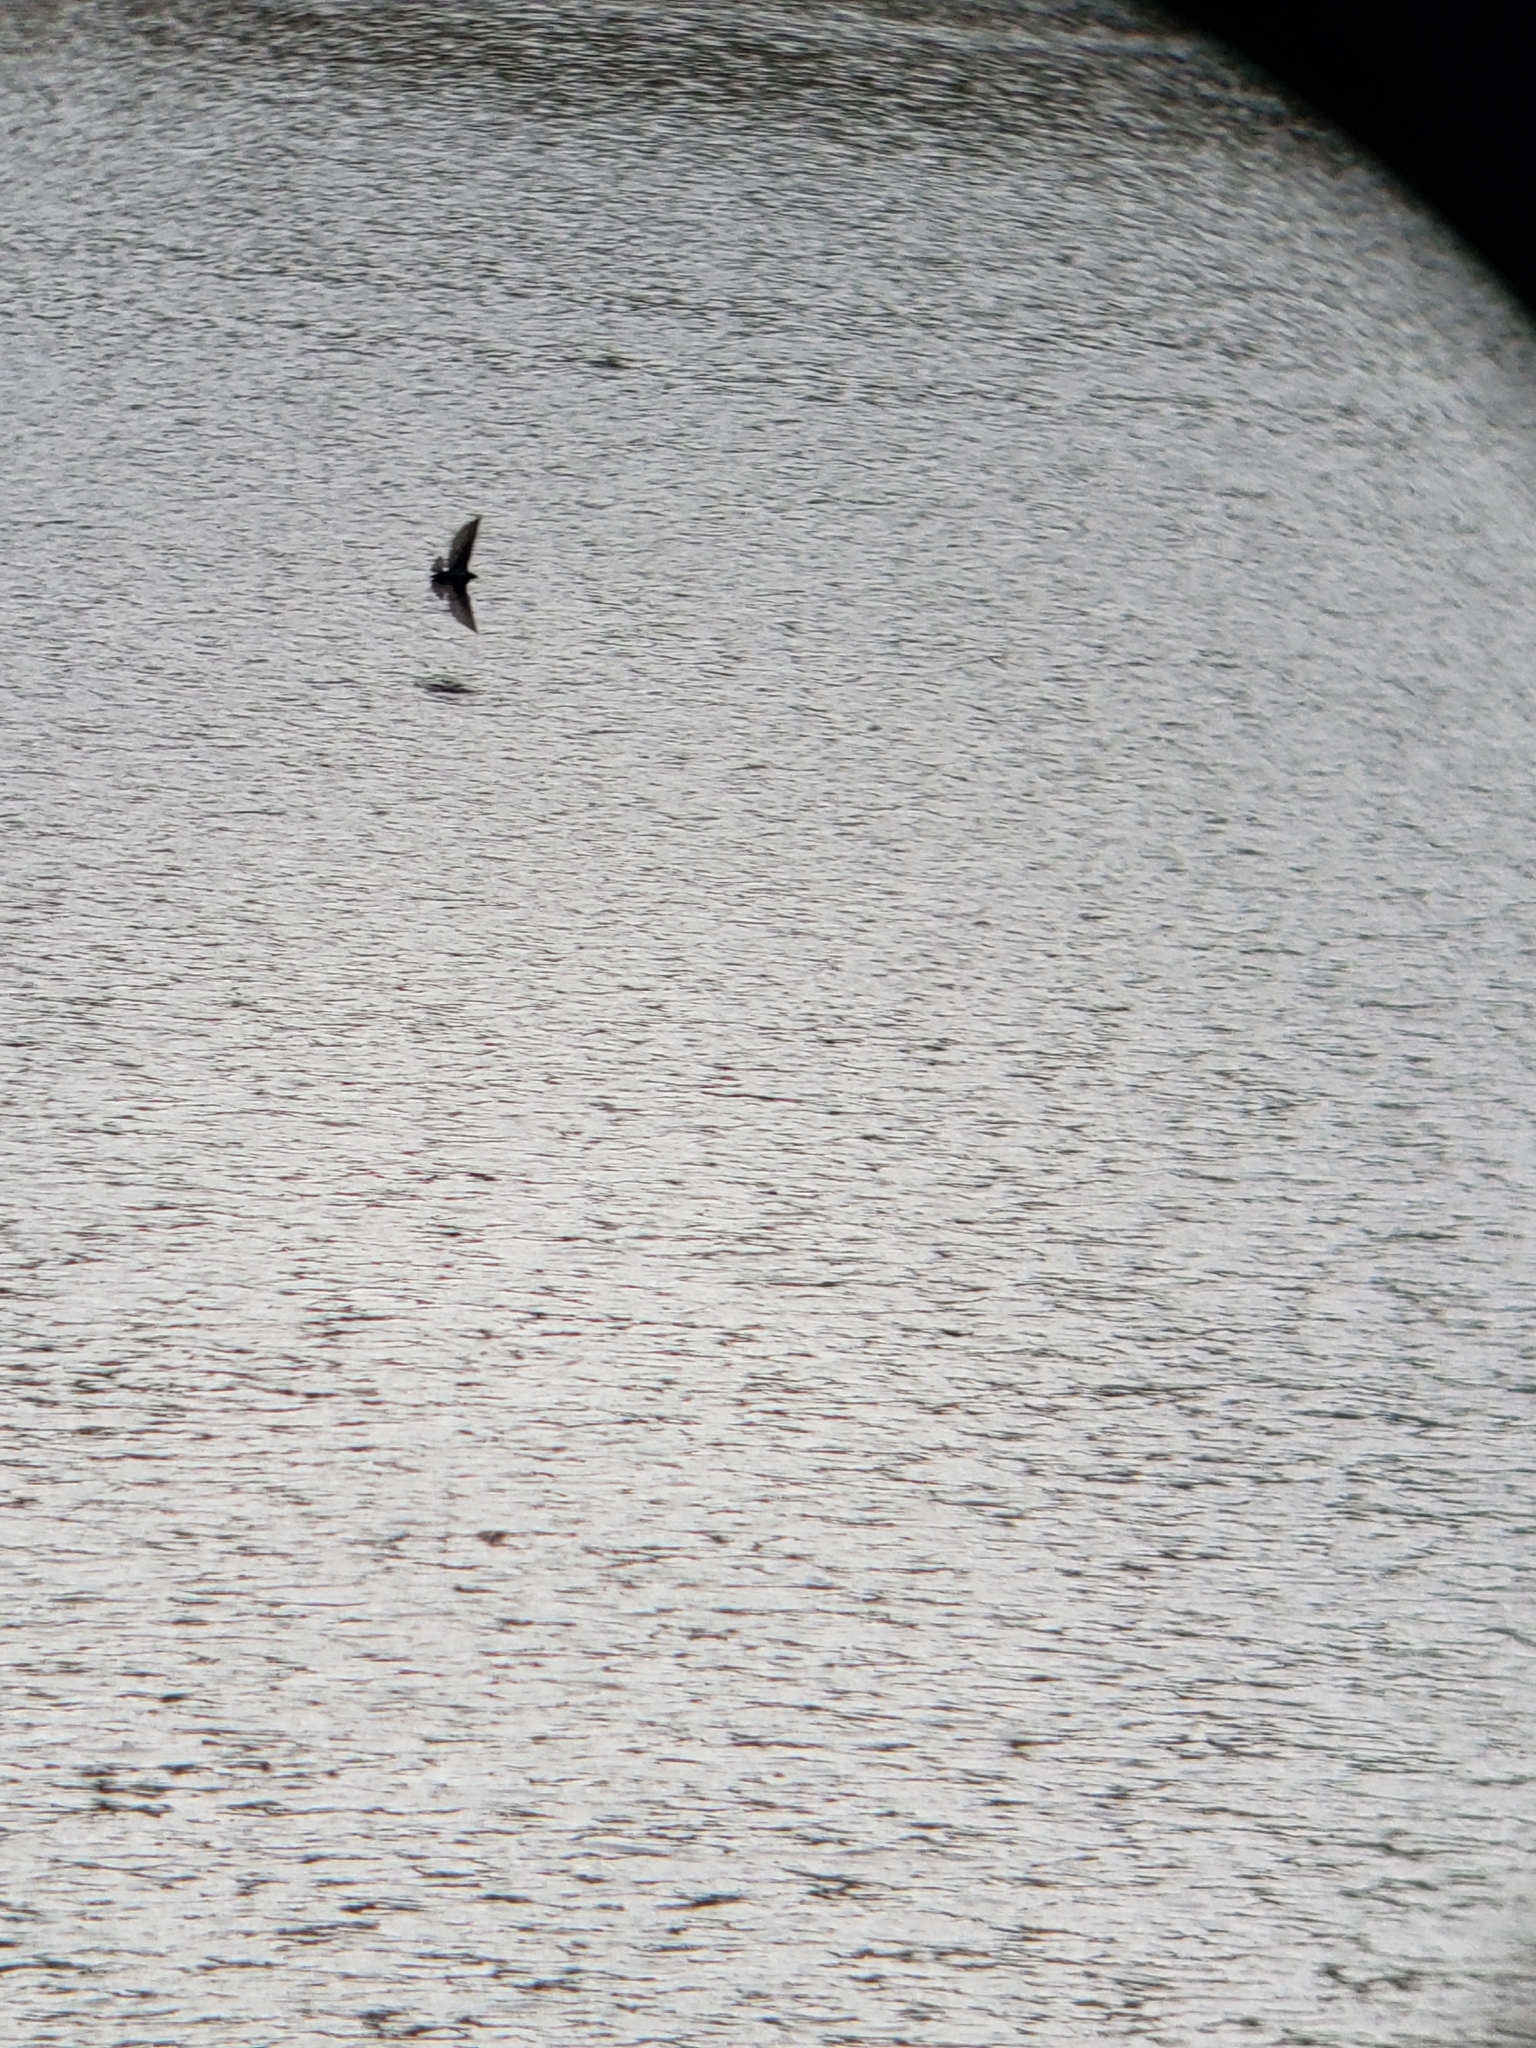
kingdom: Animalia
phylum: Chordata
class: Aves
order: Passeriformes
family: Hirundinidae
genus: Hirundo
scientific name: Hirundo rustica
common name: Barn swallow
